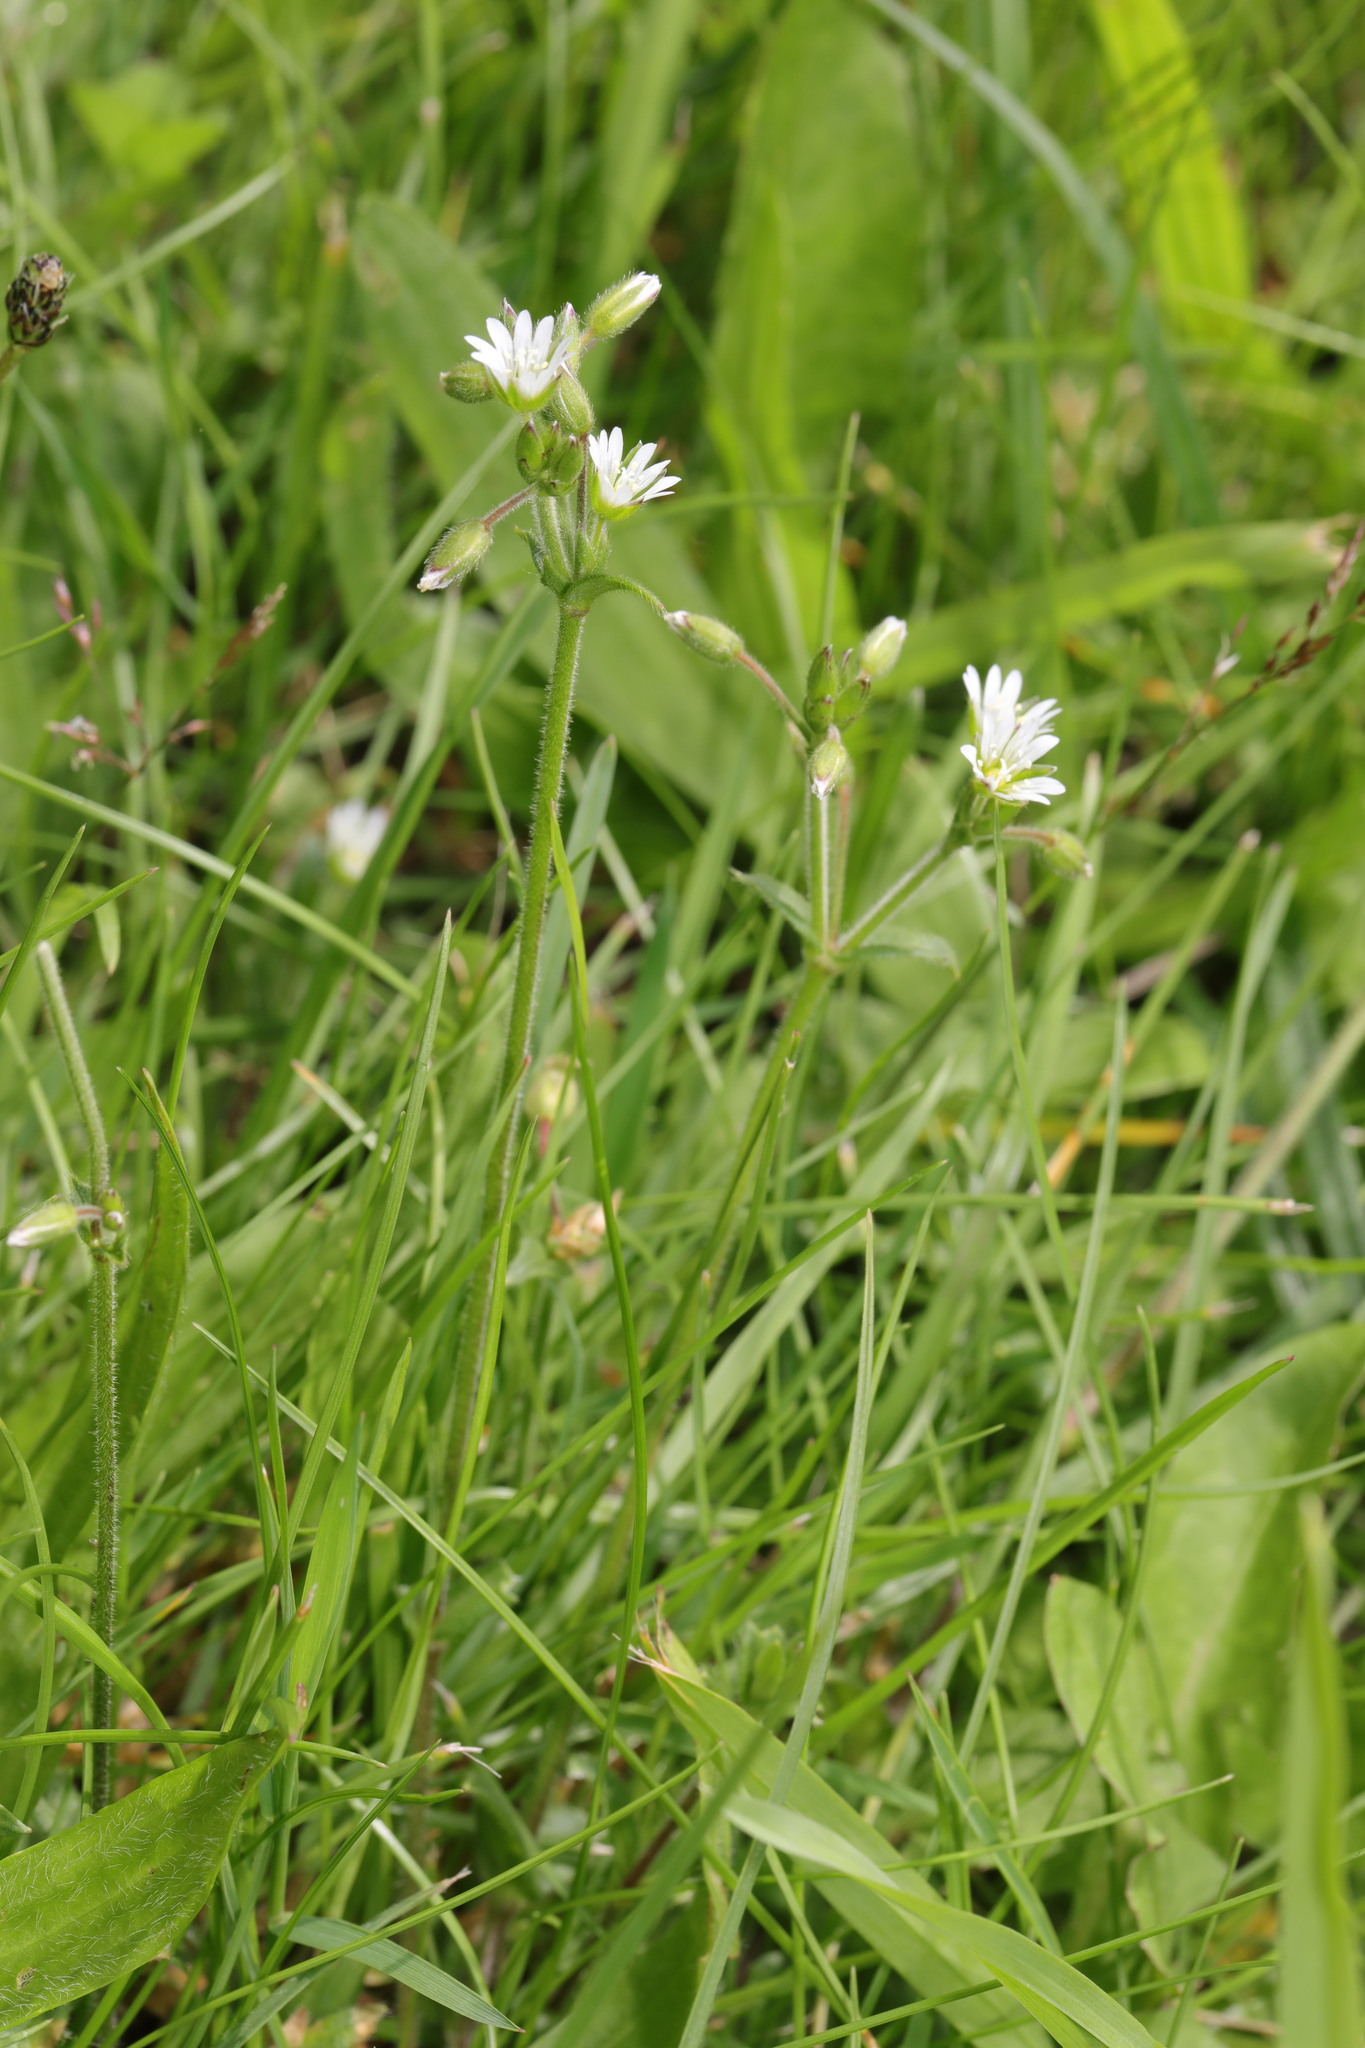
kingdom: Plantae
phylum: Tracheophyta
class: Magnoliopsida
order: Caryophyllales
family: Caryophyllaceae
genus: Cerastium
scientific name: Cerastium fontanum
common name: Common mouse-ear
